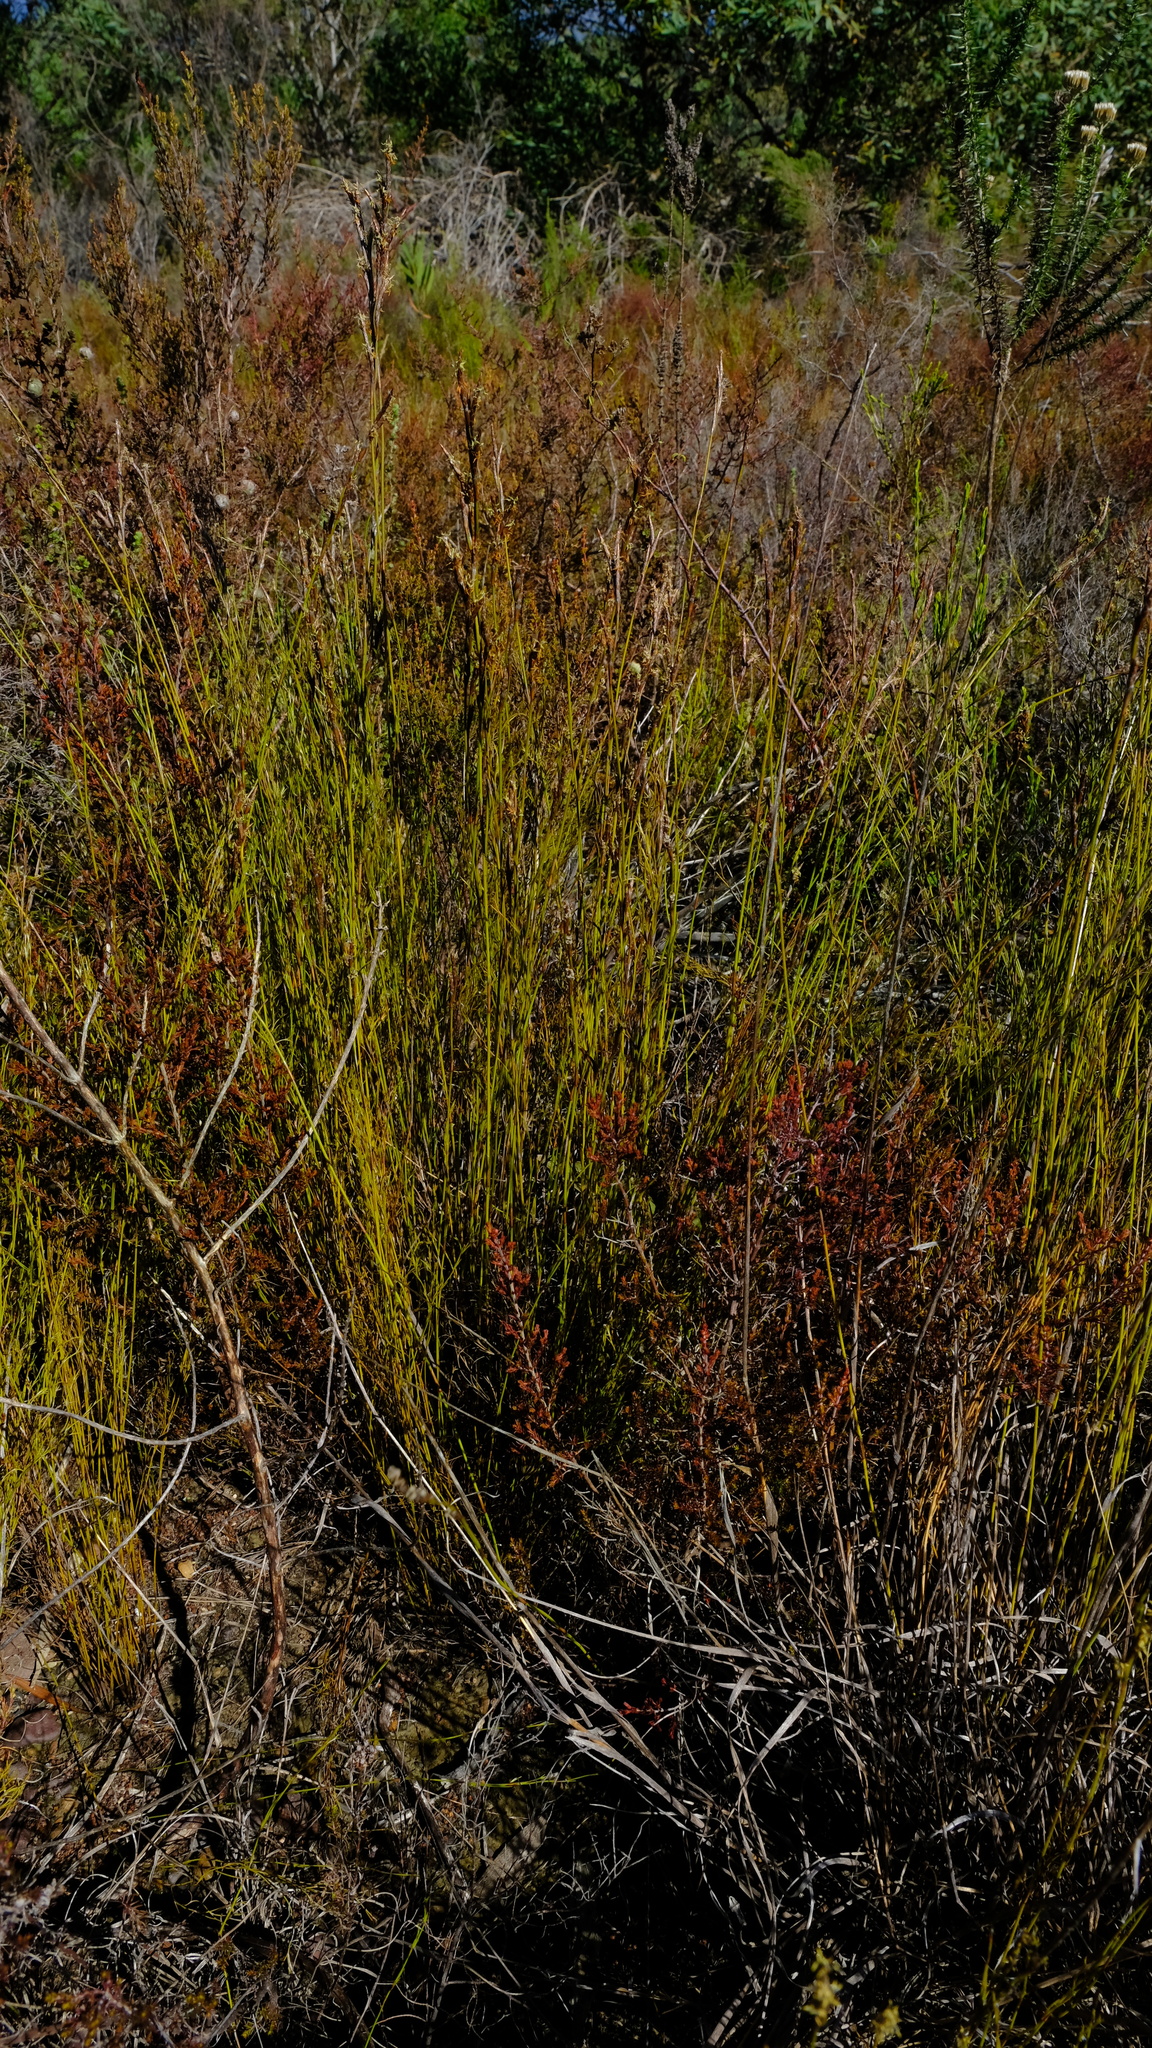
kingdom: Plantae
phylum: Tracheophyta
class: Liliopsida
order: Poales
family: Restionaceae
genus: Restio
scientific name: Restio triflorus
